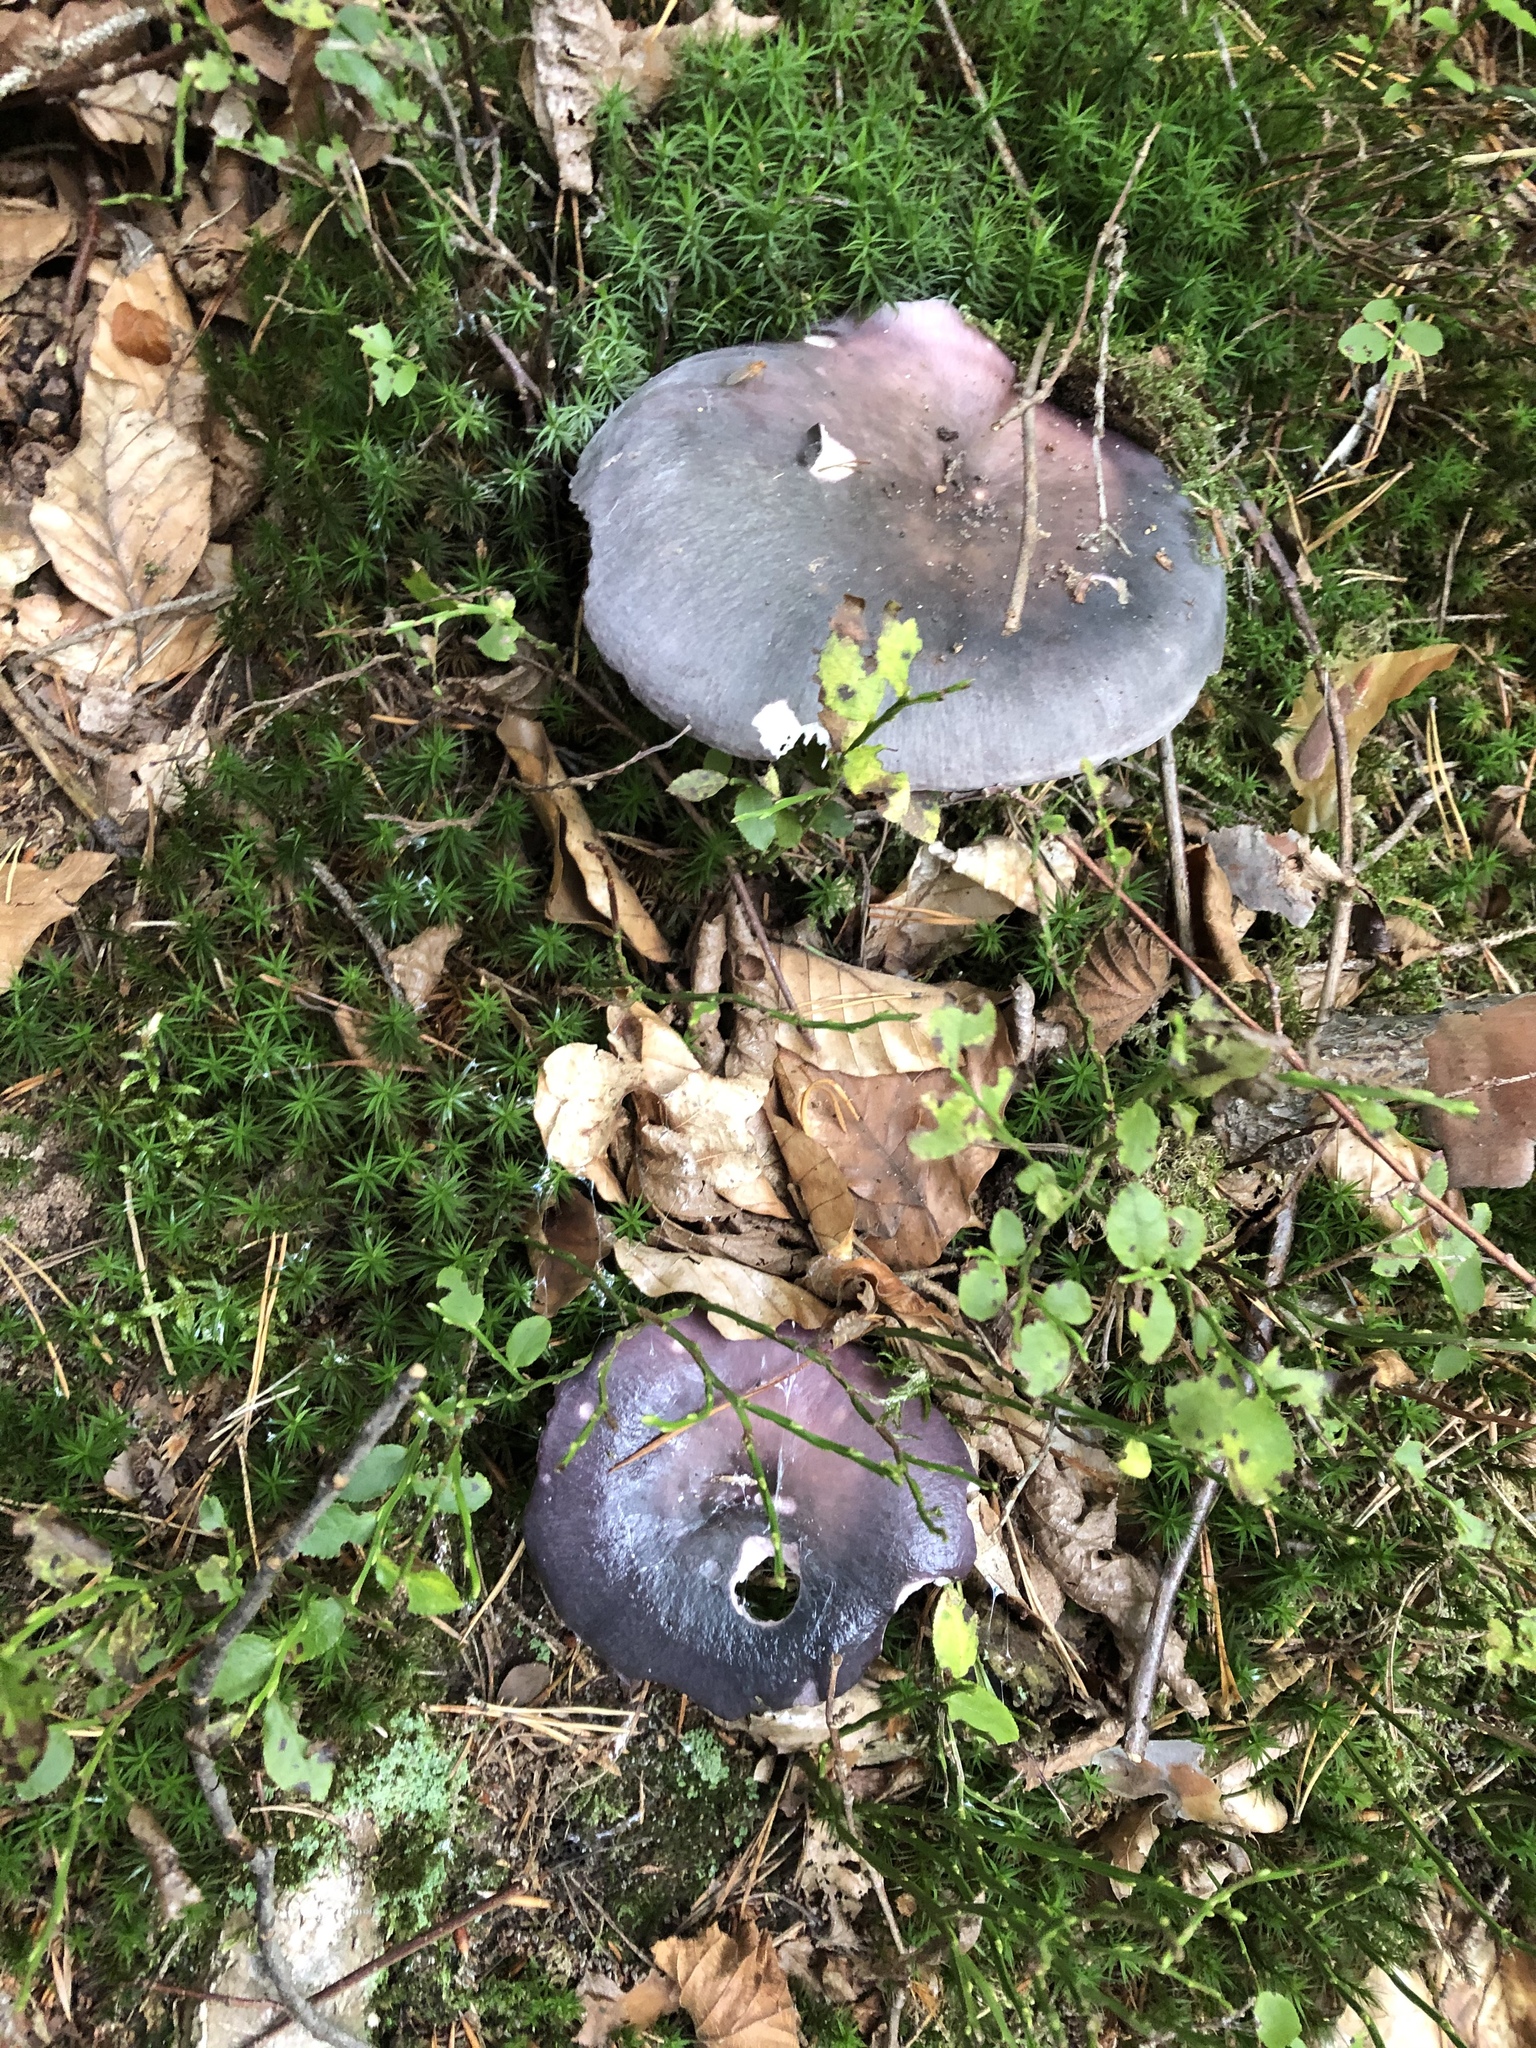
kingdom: Fungi
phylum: Basidiomycota
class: Agaricomycetes
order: Russulales
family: Russulaceae
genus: Russula
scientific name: Russula cyanoxantha
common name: Charcoal burner
